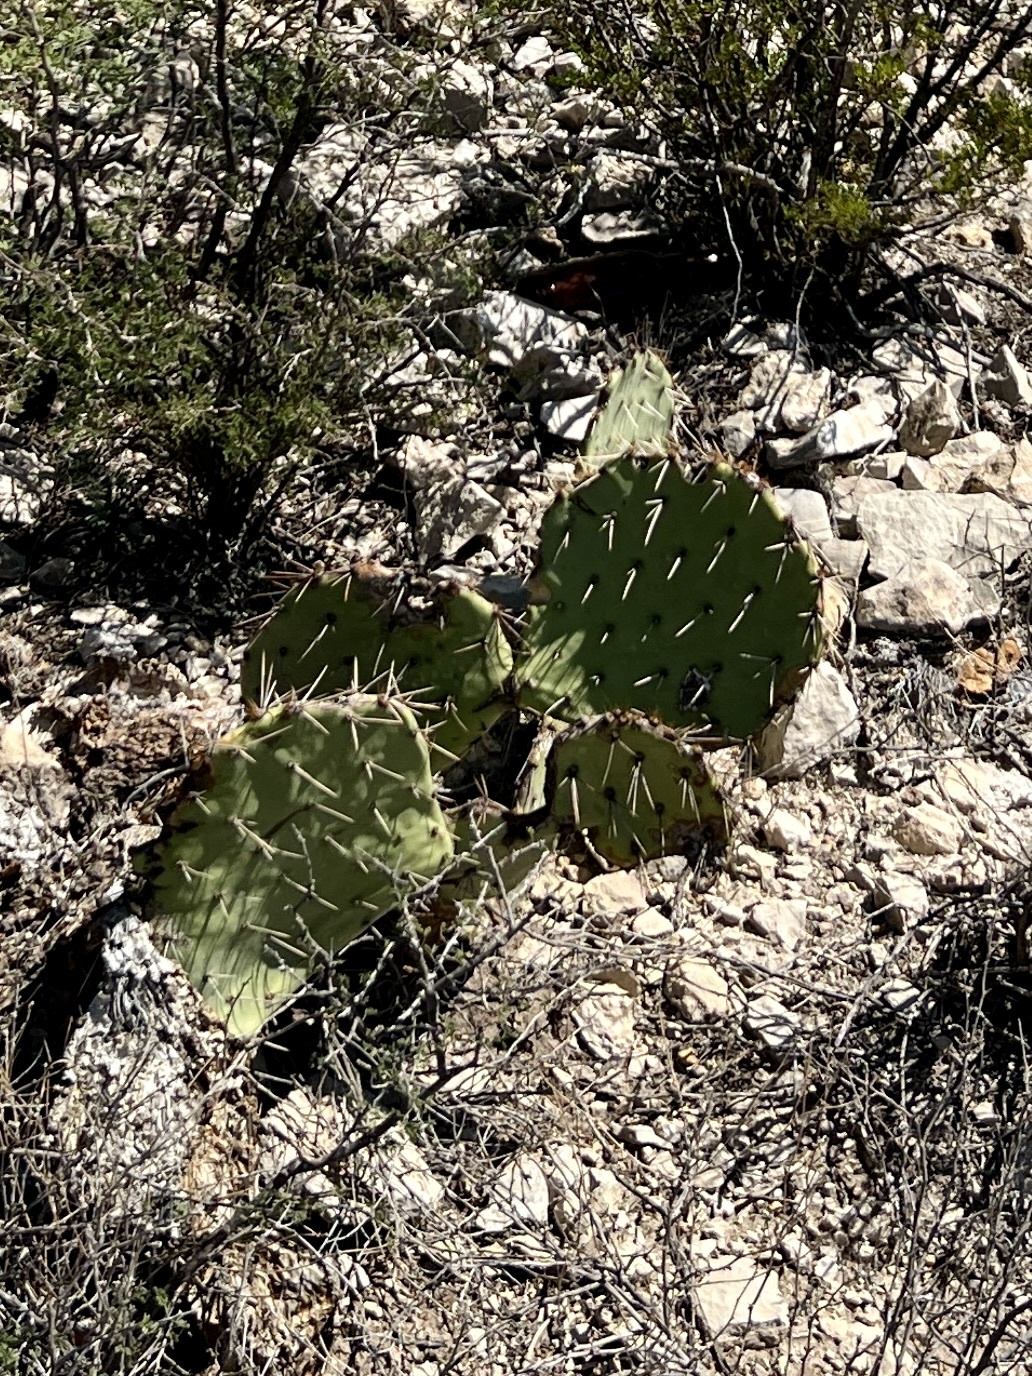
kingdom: Plantae
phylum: Tracheophyta
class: Magnoliopsida
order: Caryophyllales
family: Cactaceae
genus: Opuntia
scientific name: Opuntia engelmannii
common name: Cactus-apple
